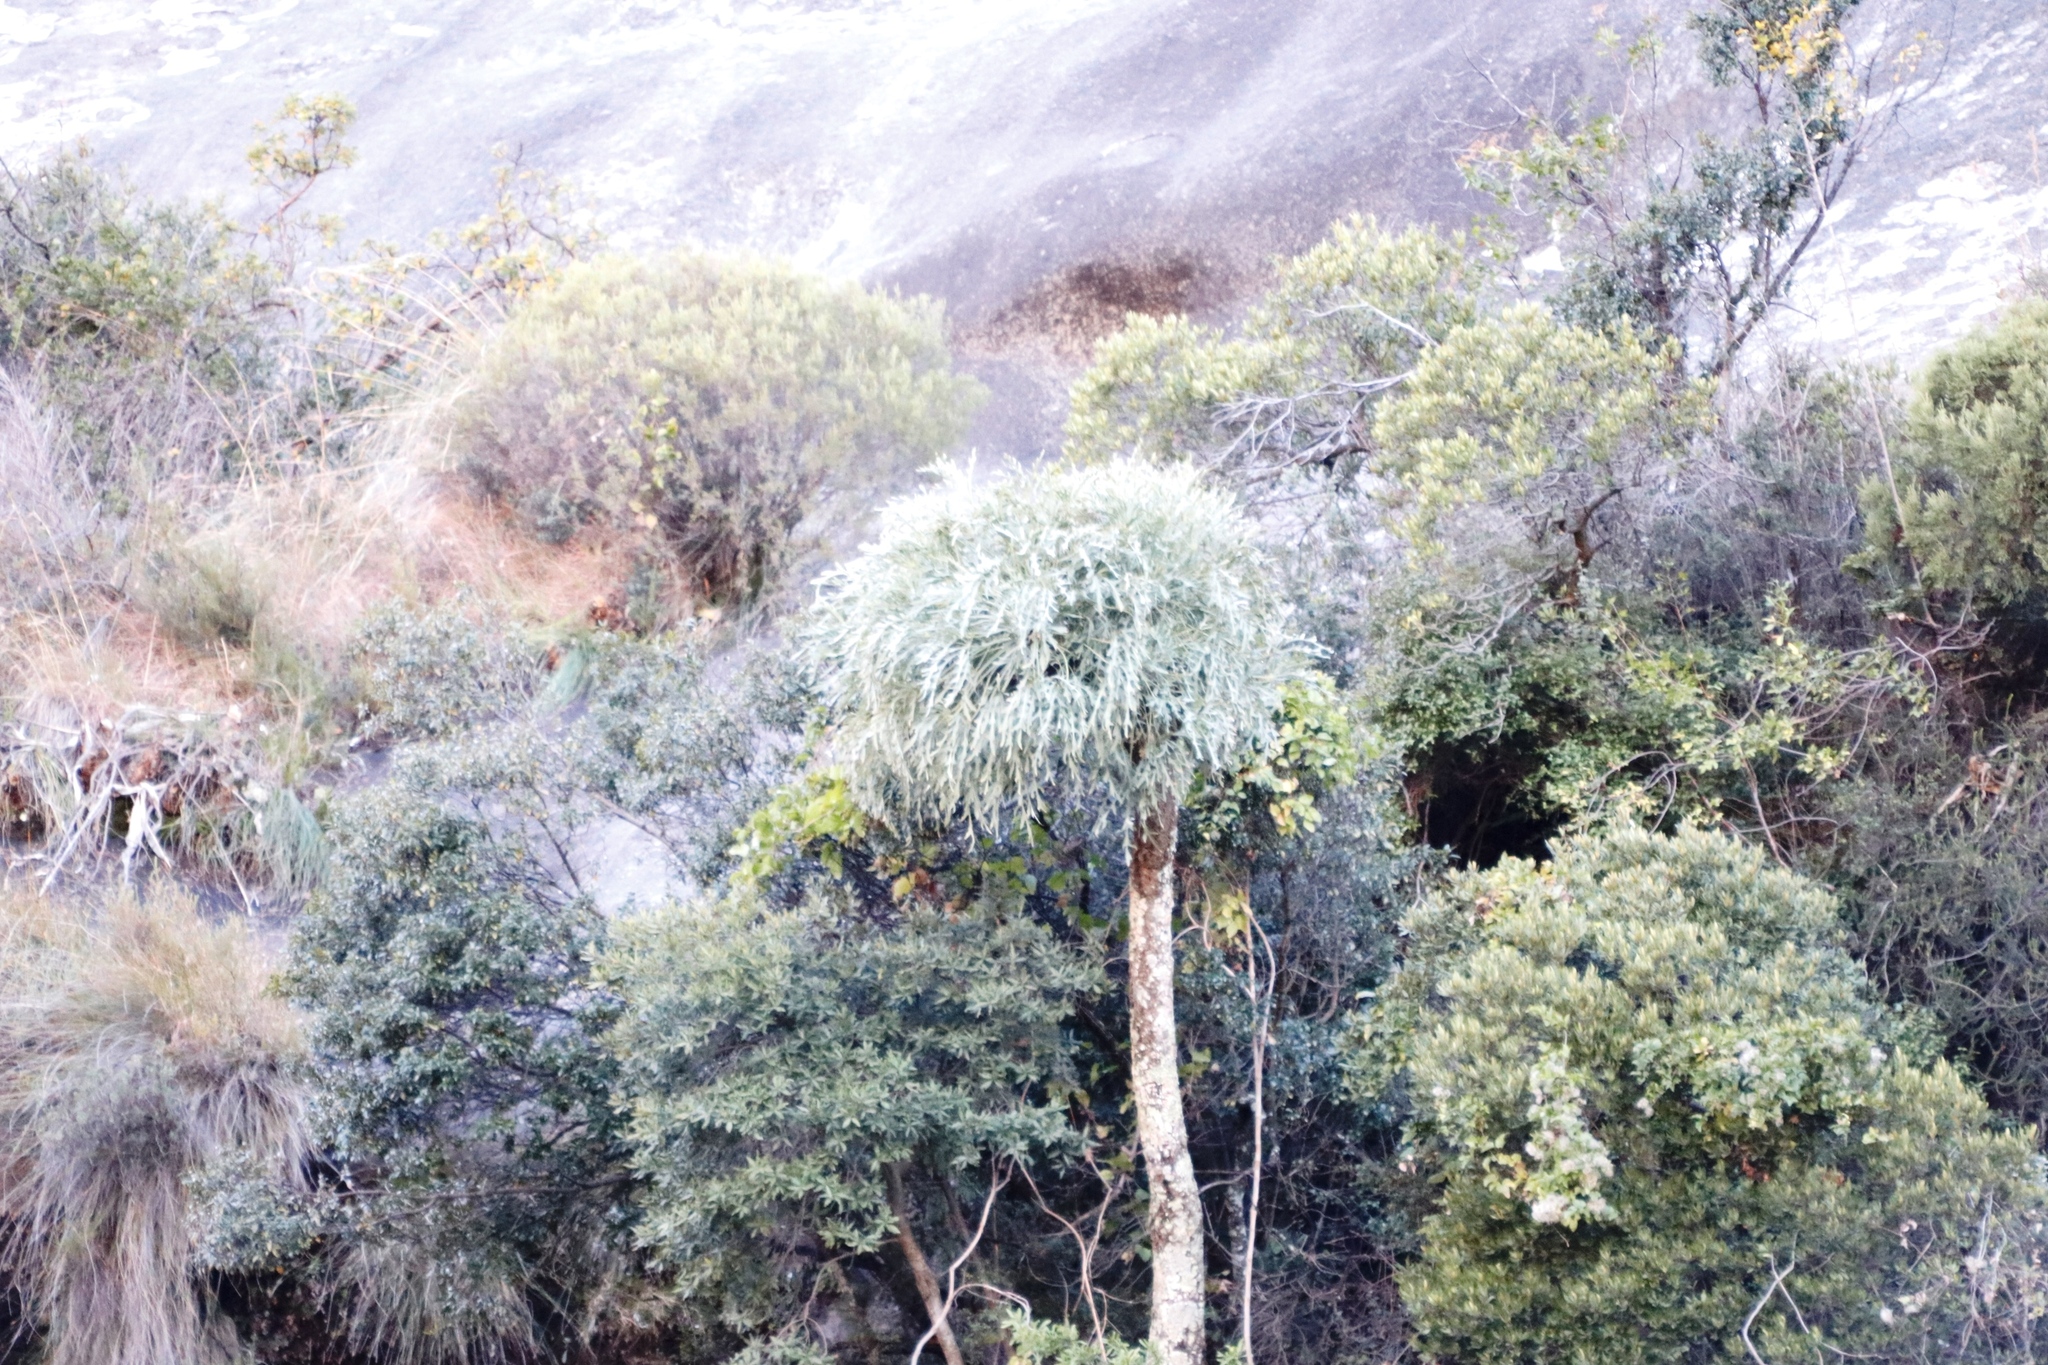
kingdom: Plantae
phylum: Tracheophyta
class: Magnoliopsida
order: Apiales
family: Araliaceae
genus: Cussonia
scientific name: Cussonia paniculata
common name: Cabbagetree
